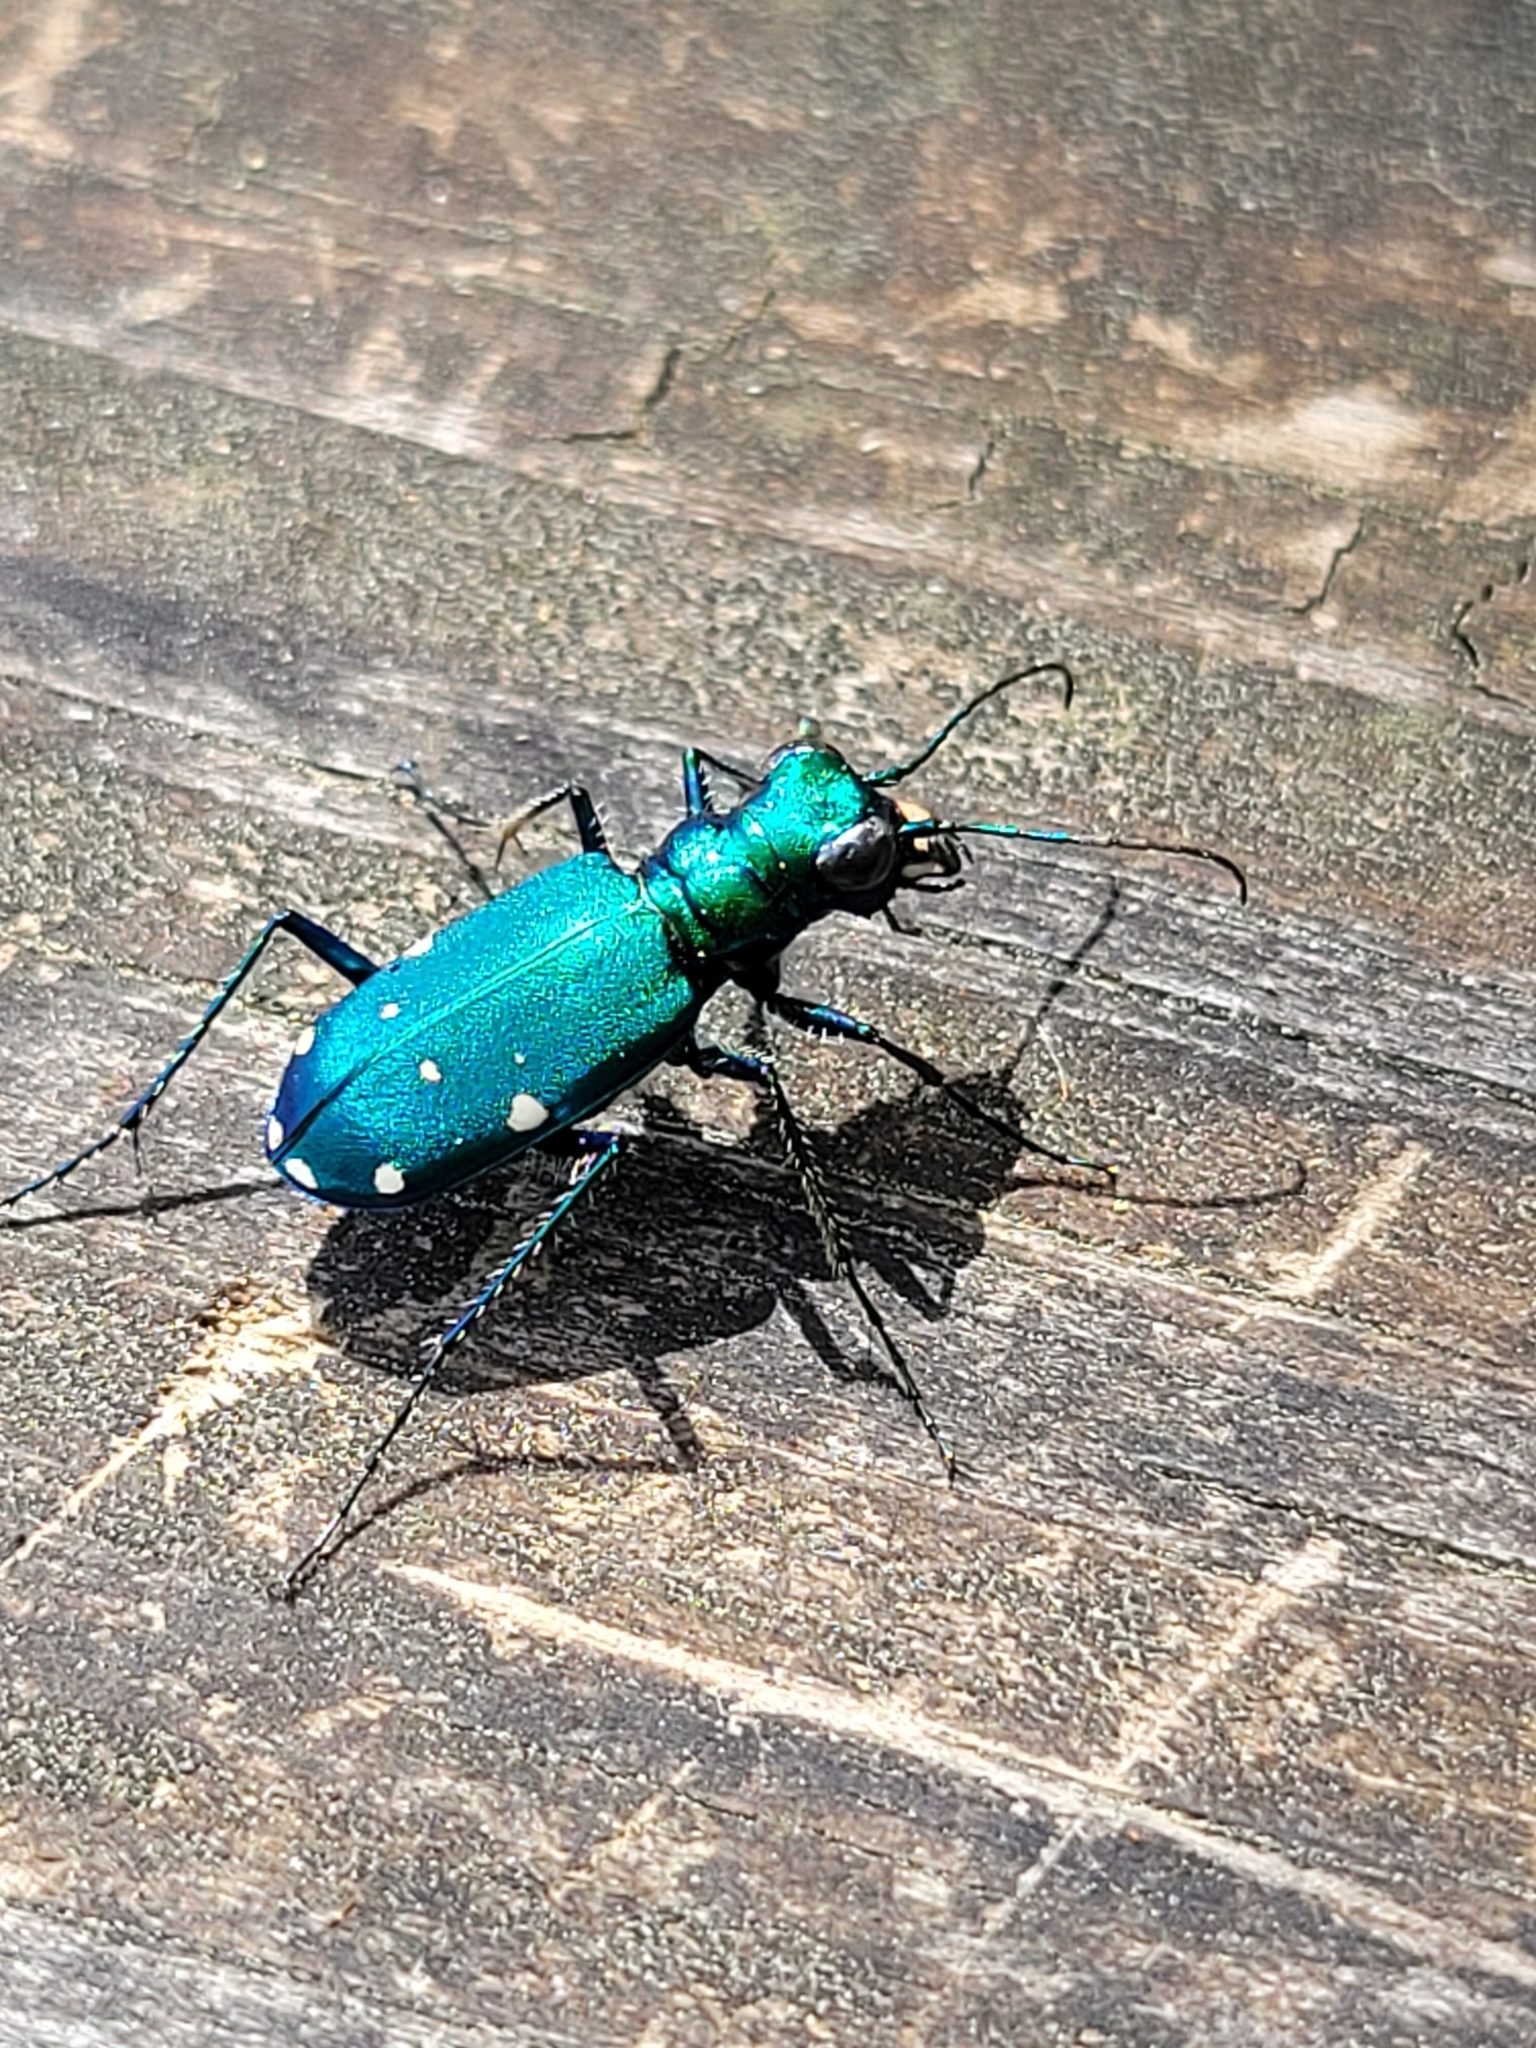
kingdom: Animalia
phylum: Arthropoda
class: Insecta
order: Coleoptera
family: Carabidae
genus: Cicindela
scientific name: Cicindela sexguttata
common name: Six-spotted tiger beetle
